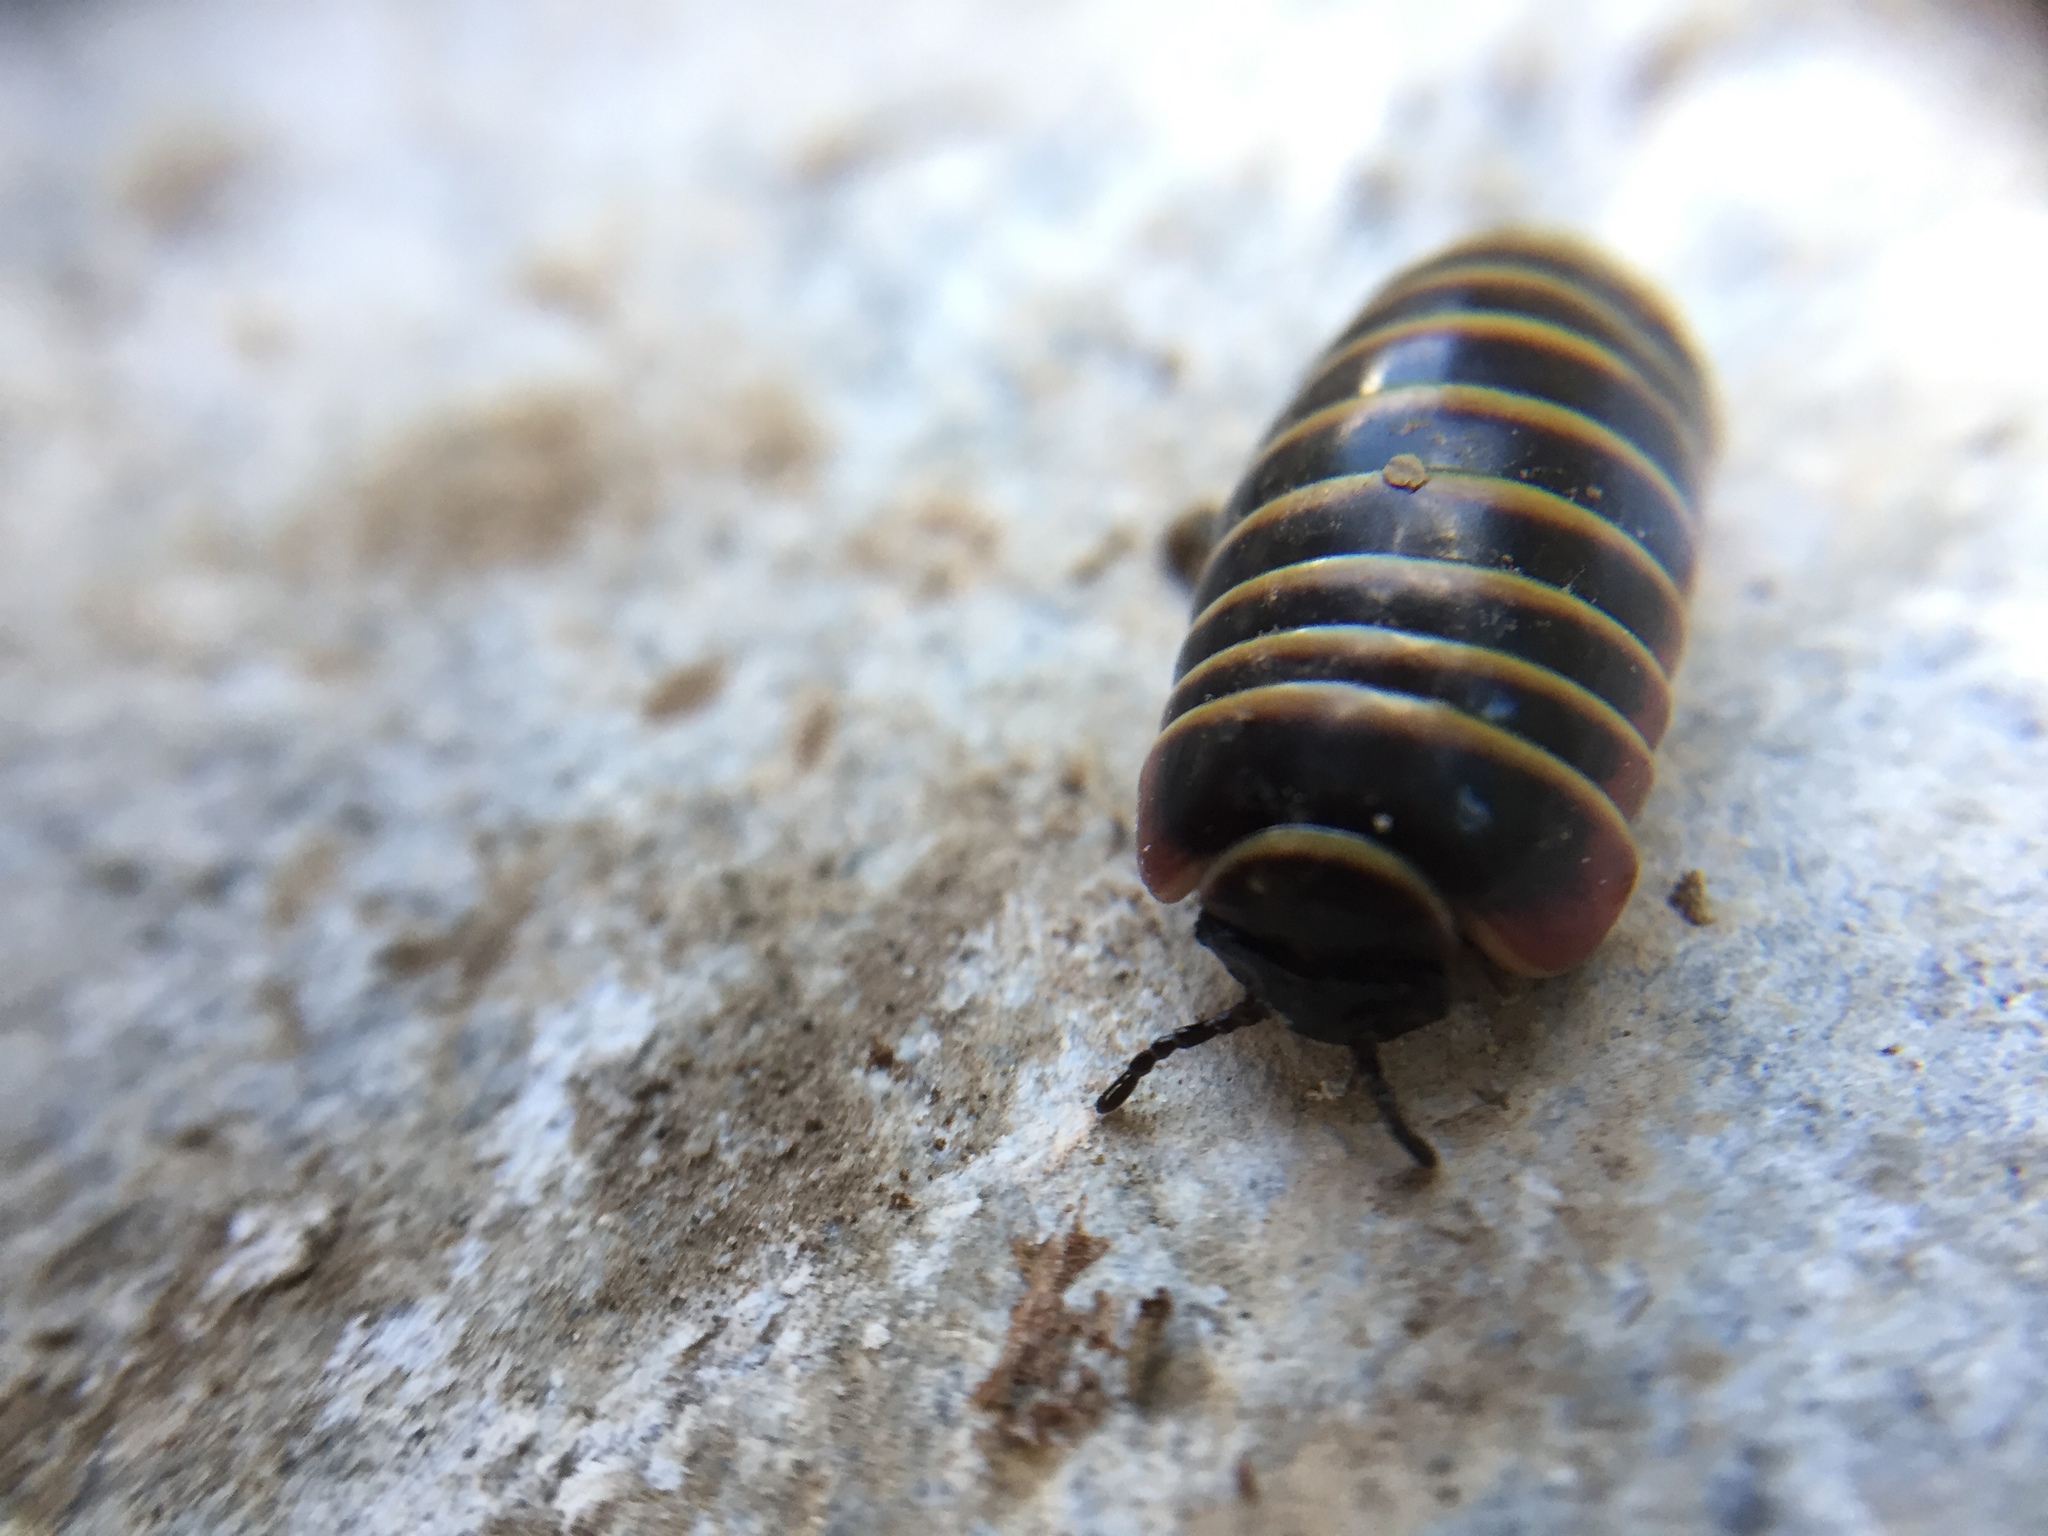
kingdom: Animalia
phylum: Arthropoda
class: Diplopoda
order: Glomerida
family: Glomeridae
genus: Glomeris
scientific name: Glomeris balcanica
